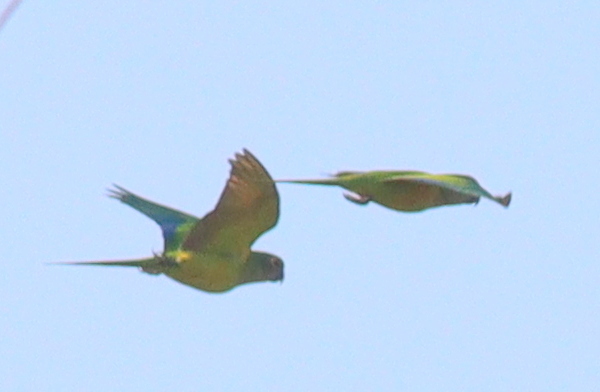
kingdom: Animalia
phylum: Chordata
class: Aves
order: Psittaciformes
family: Psittacidae
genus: Aratinga
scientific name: Aratinga aurea
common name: Peach-fronted parakeet
